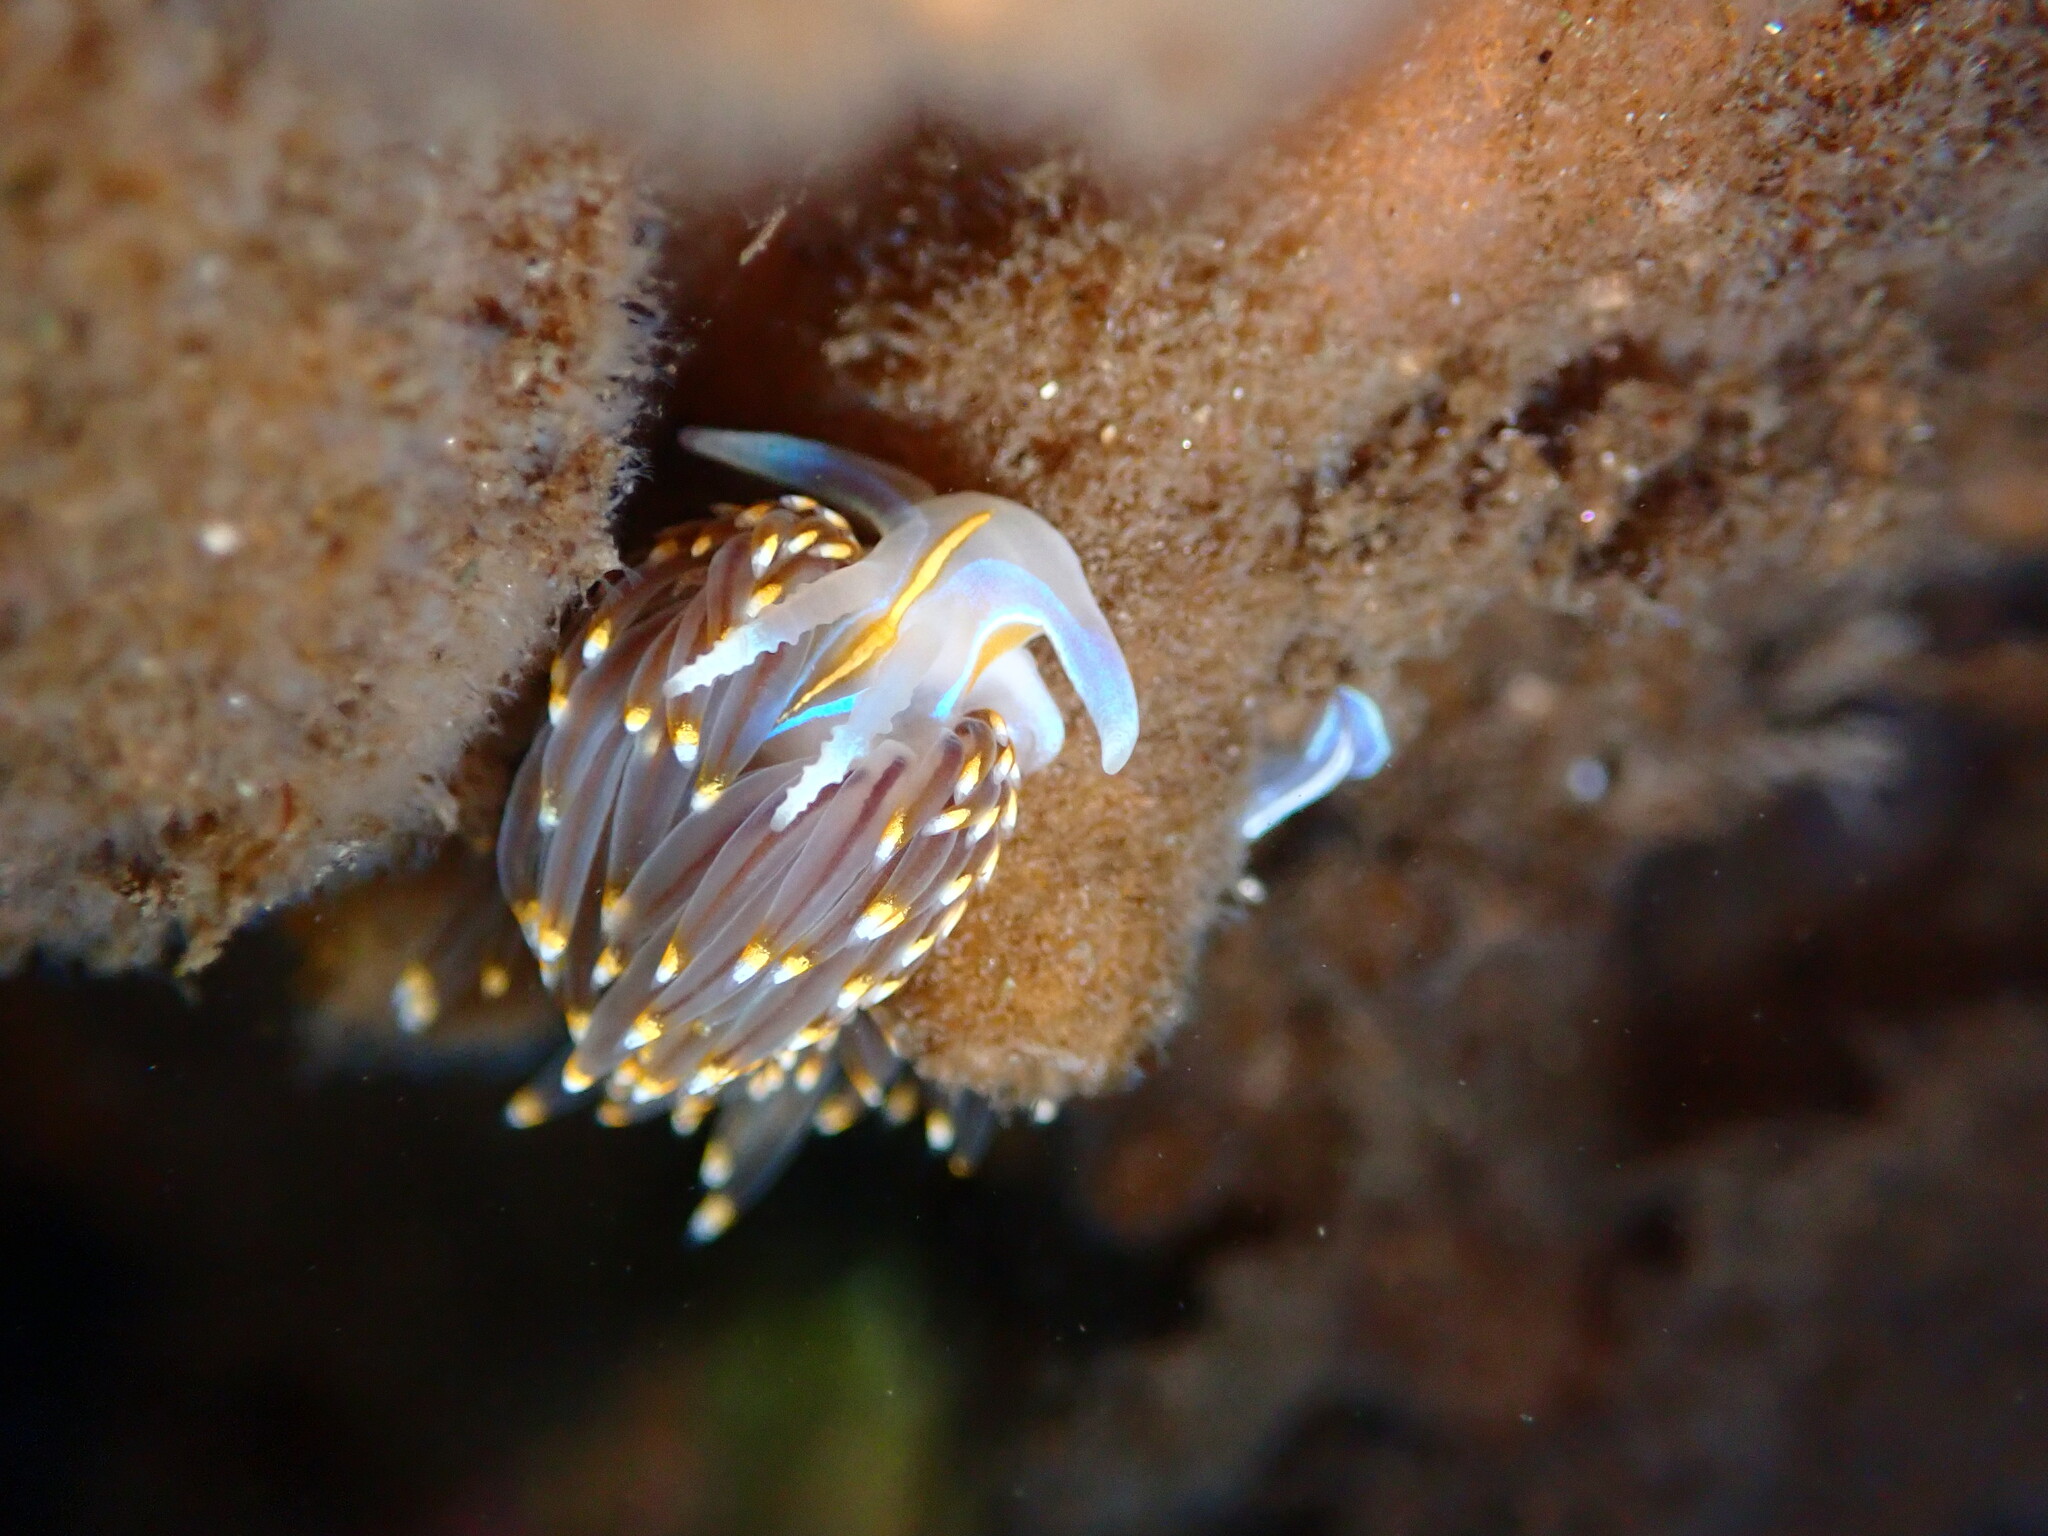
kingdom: Animalia
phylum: Mollusca
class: Gastropoda
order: Nudibranchia
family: Myrrhinidae
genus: Hermissenda
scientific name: Hermissenda opalescens
